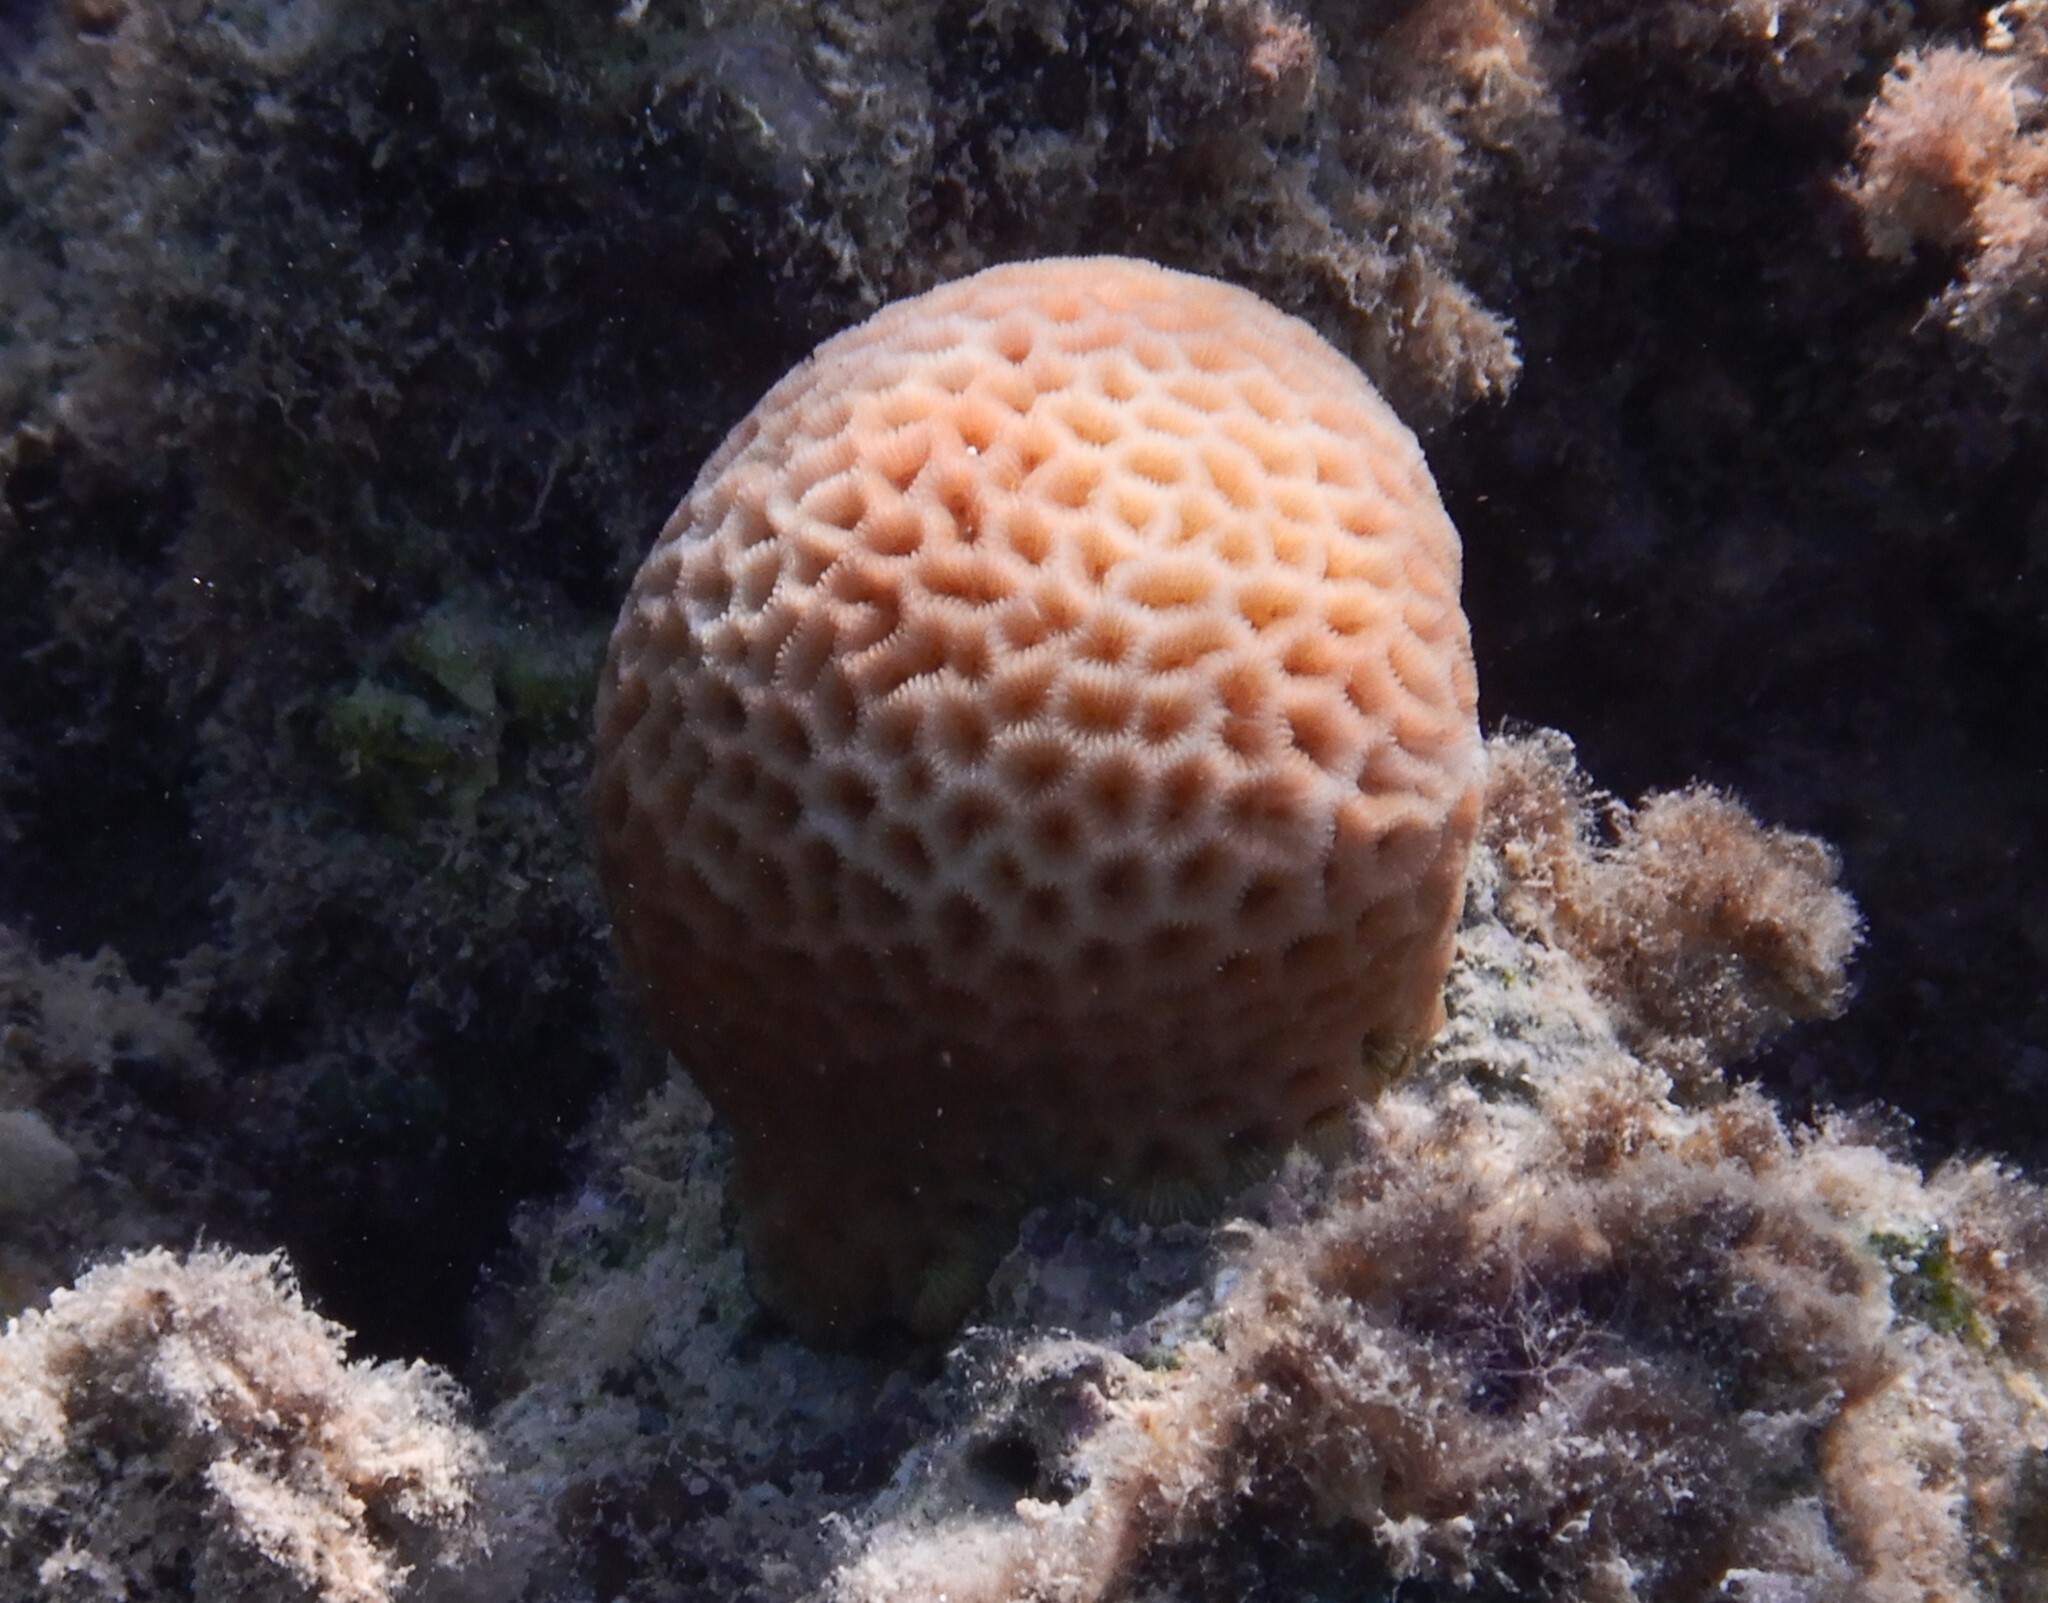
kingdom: Animalia
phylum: Cnidaria
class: Anthozoa
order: Scleractinia
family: Merulinidae
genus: Goniastrea
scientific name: Goniastrea pectinata
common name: Lesser star coral
